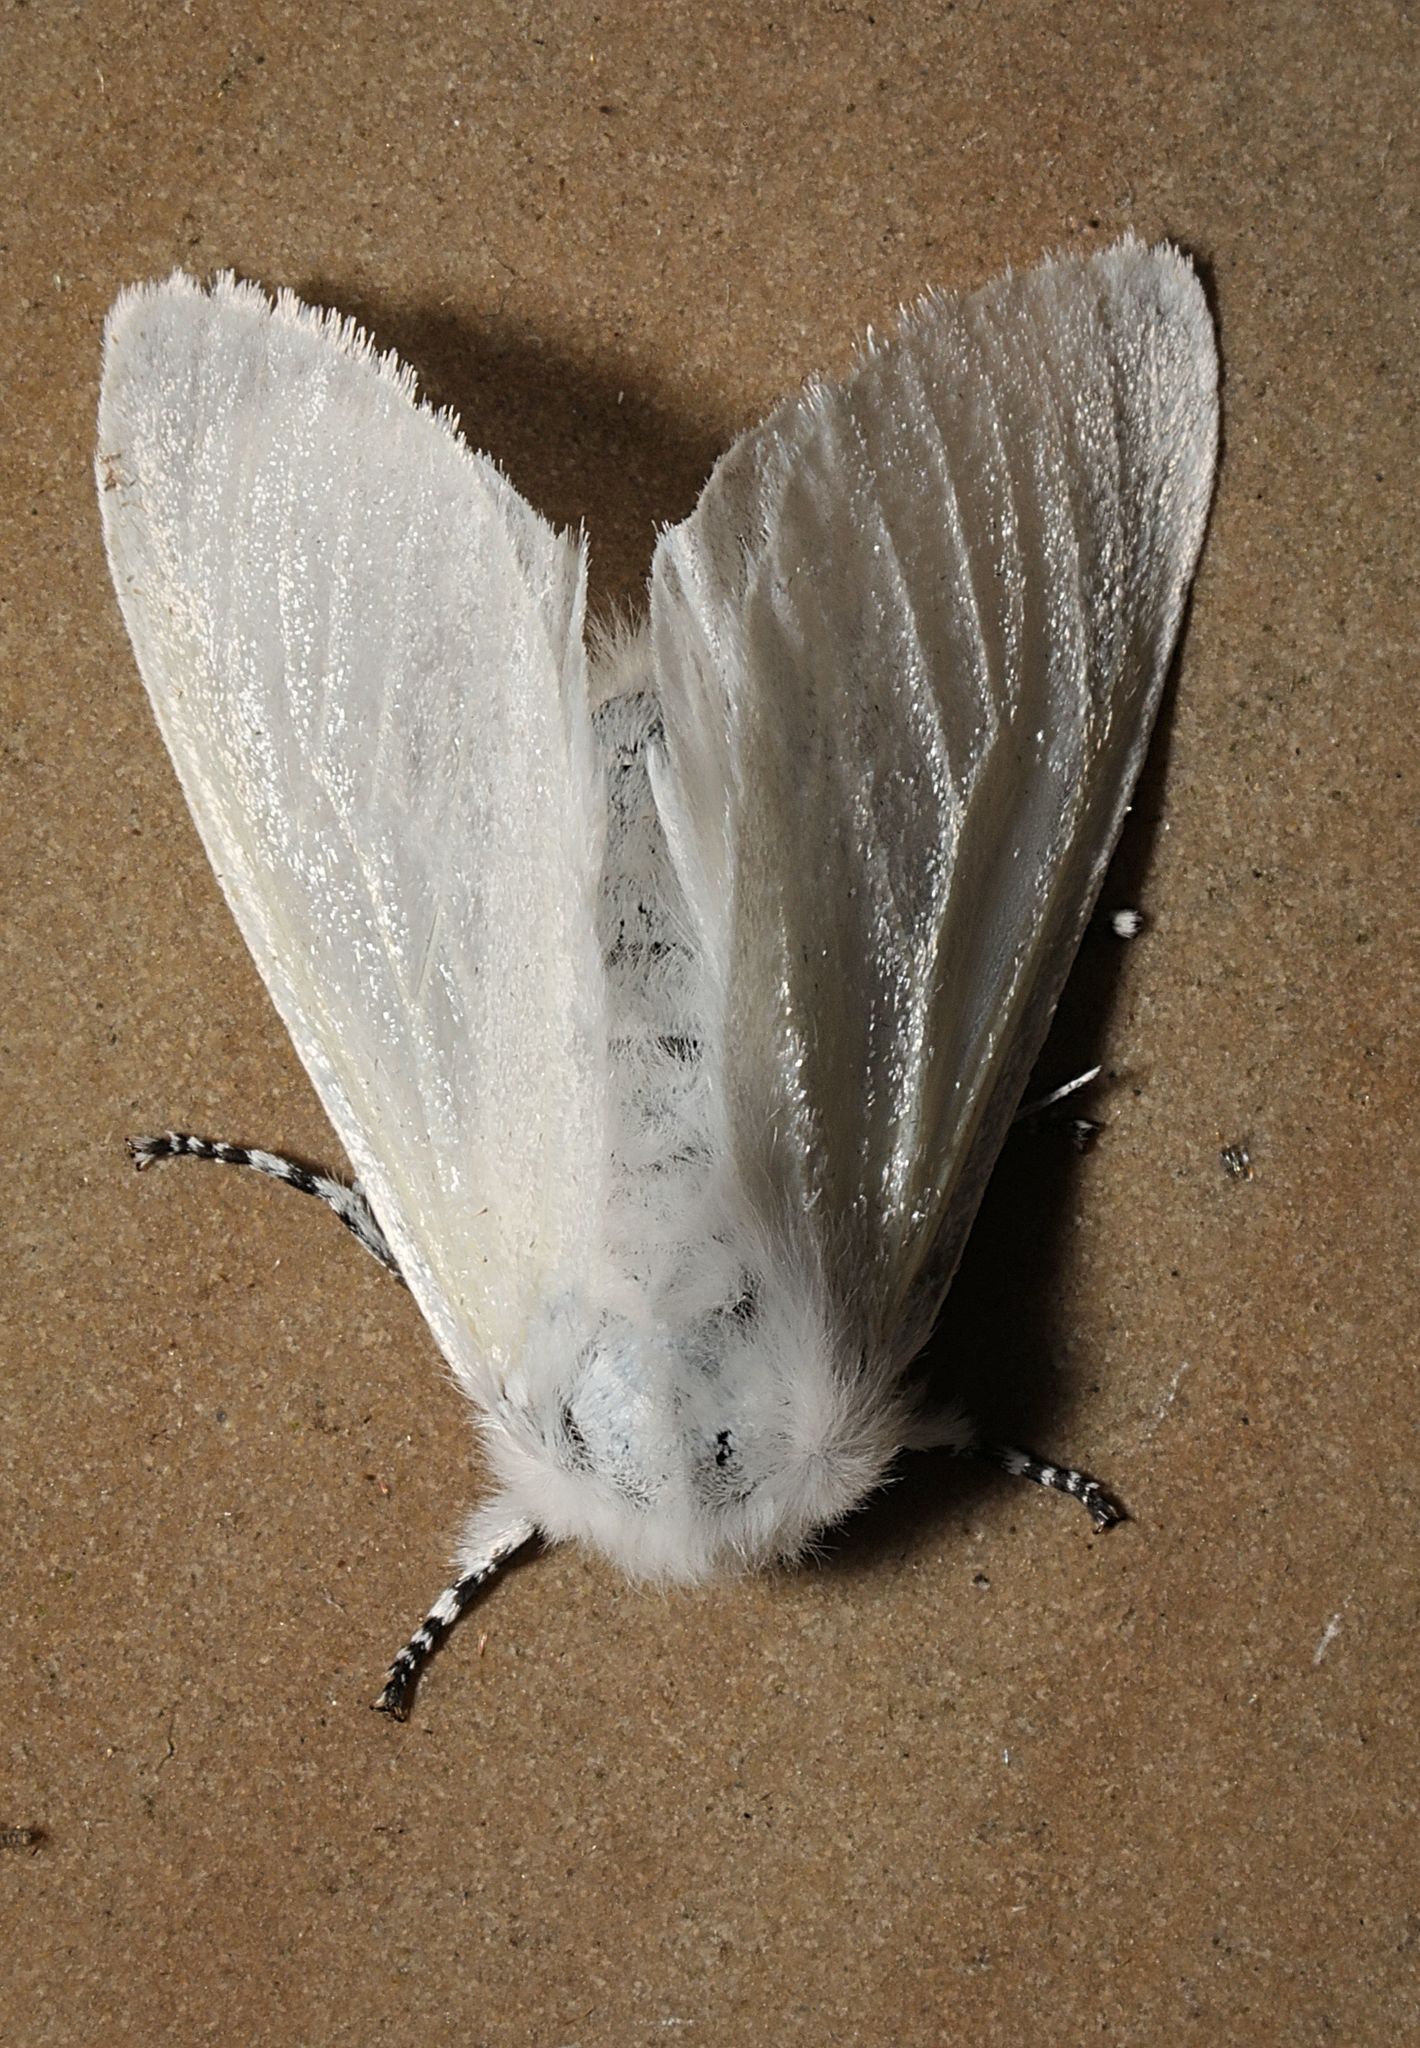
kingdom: Animalia
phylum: Arthropoda
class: Insecta
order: Lepidoptera
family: Erebidae
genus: Leucoma
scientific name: Leucoma salicis
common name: White satin moth
